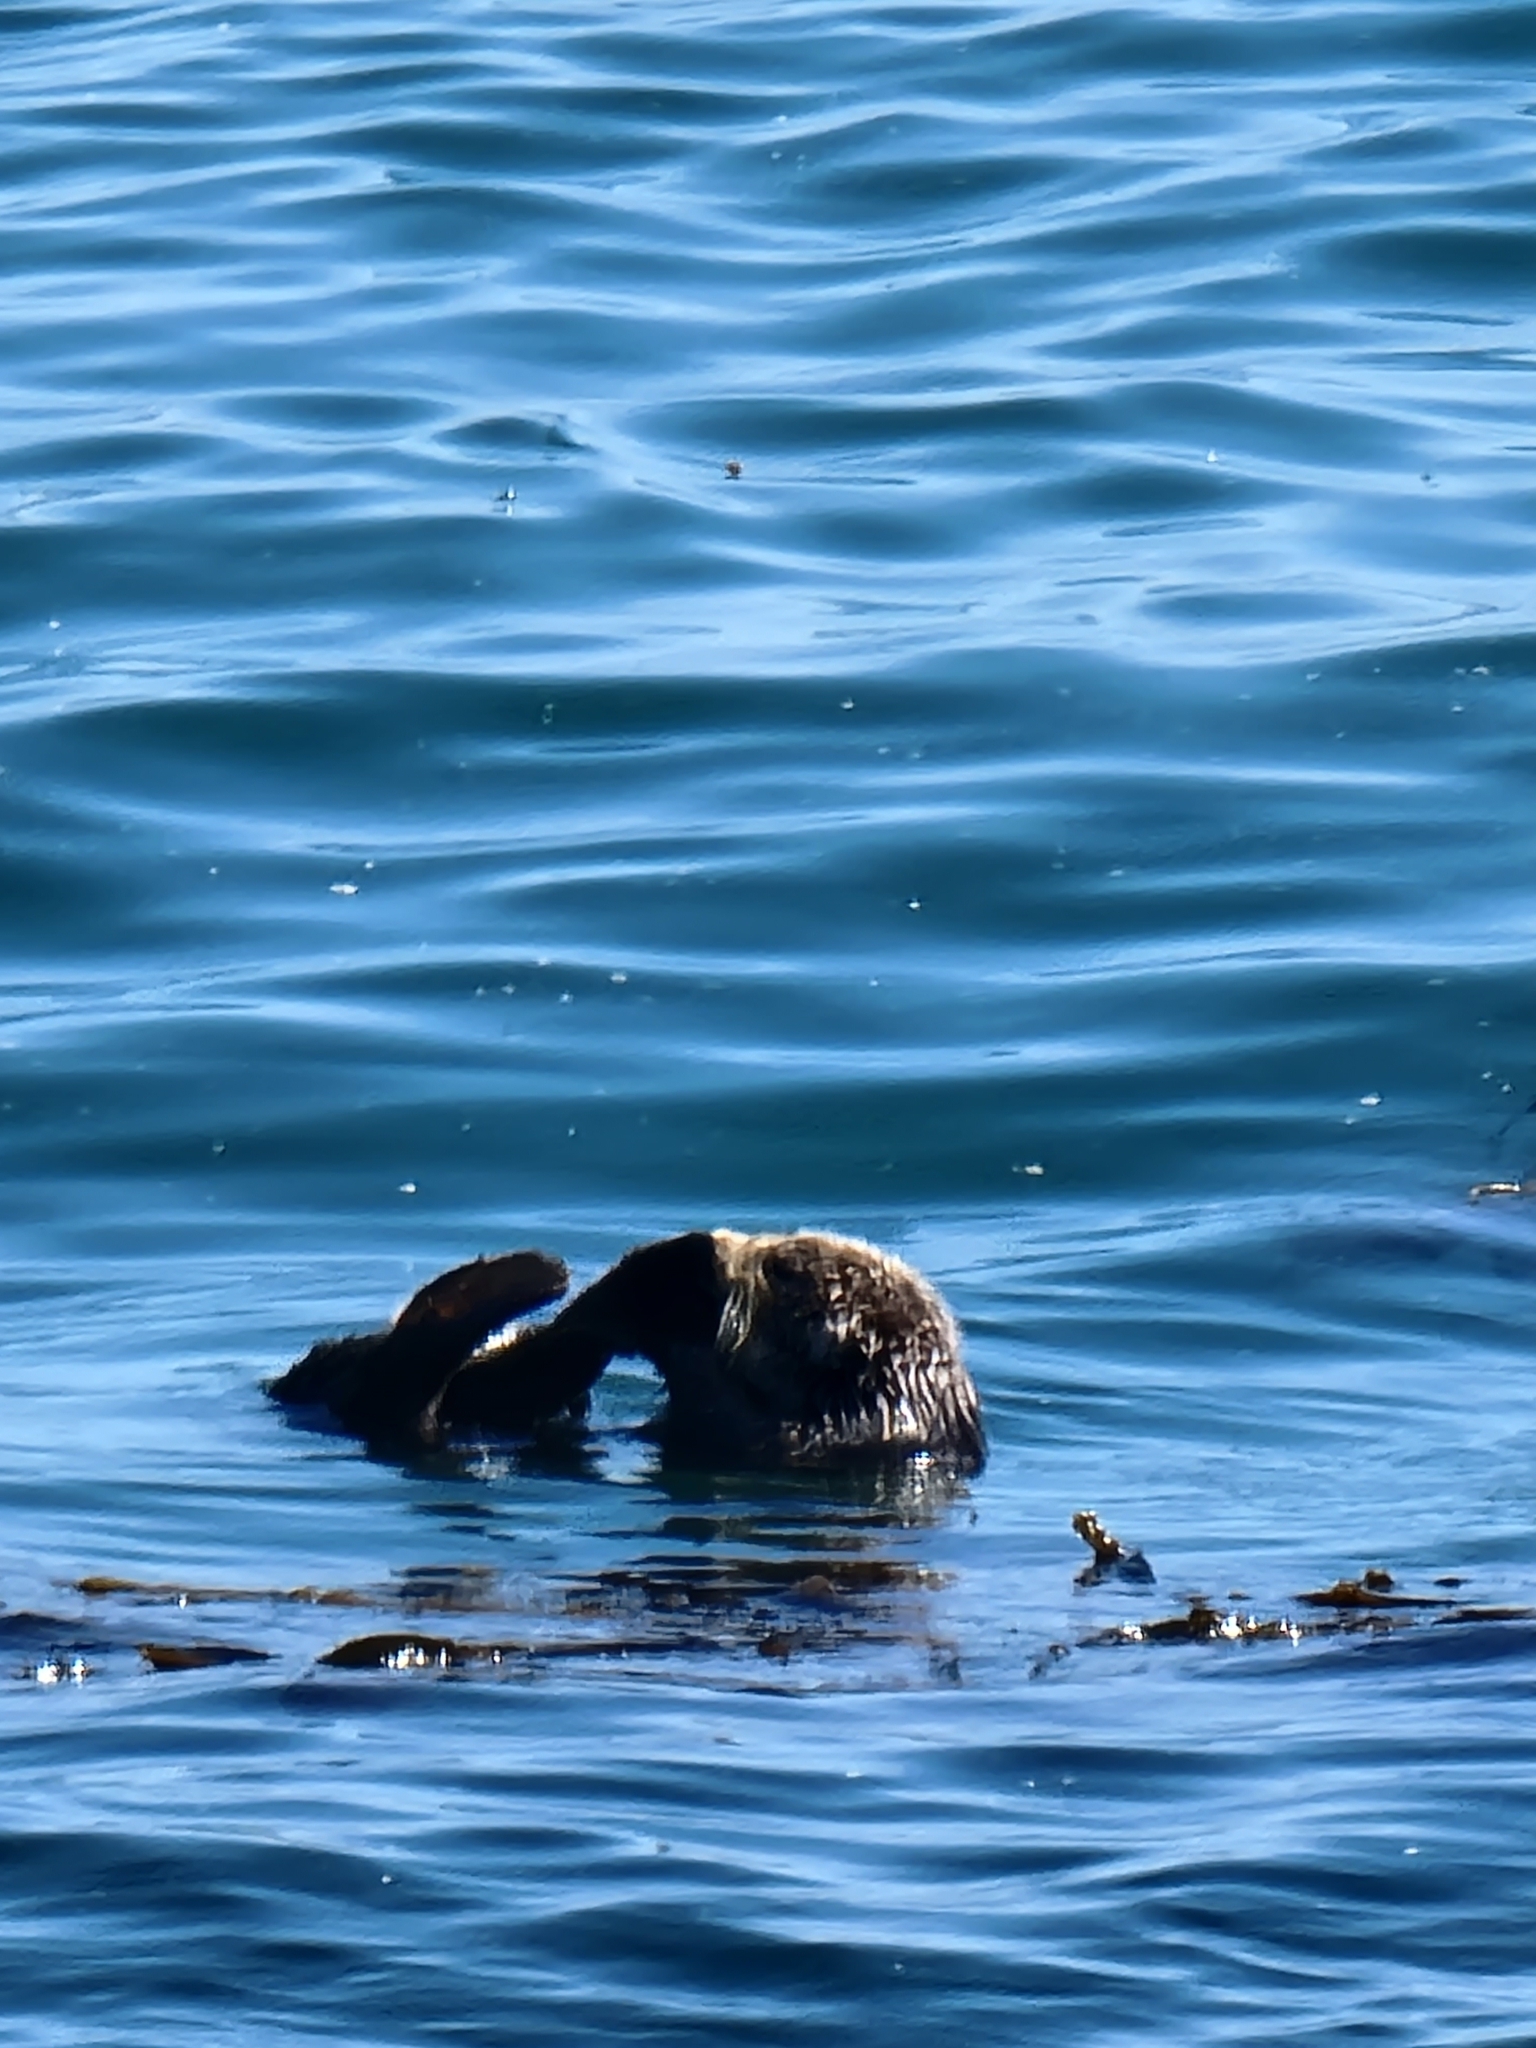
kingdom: Animalia
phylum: Chordata
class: Mammalia
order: Carnivora
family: Mustelidae
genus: Enhydra
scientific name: Enhydra lutris
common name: Sea otter
